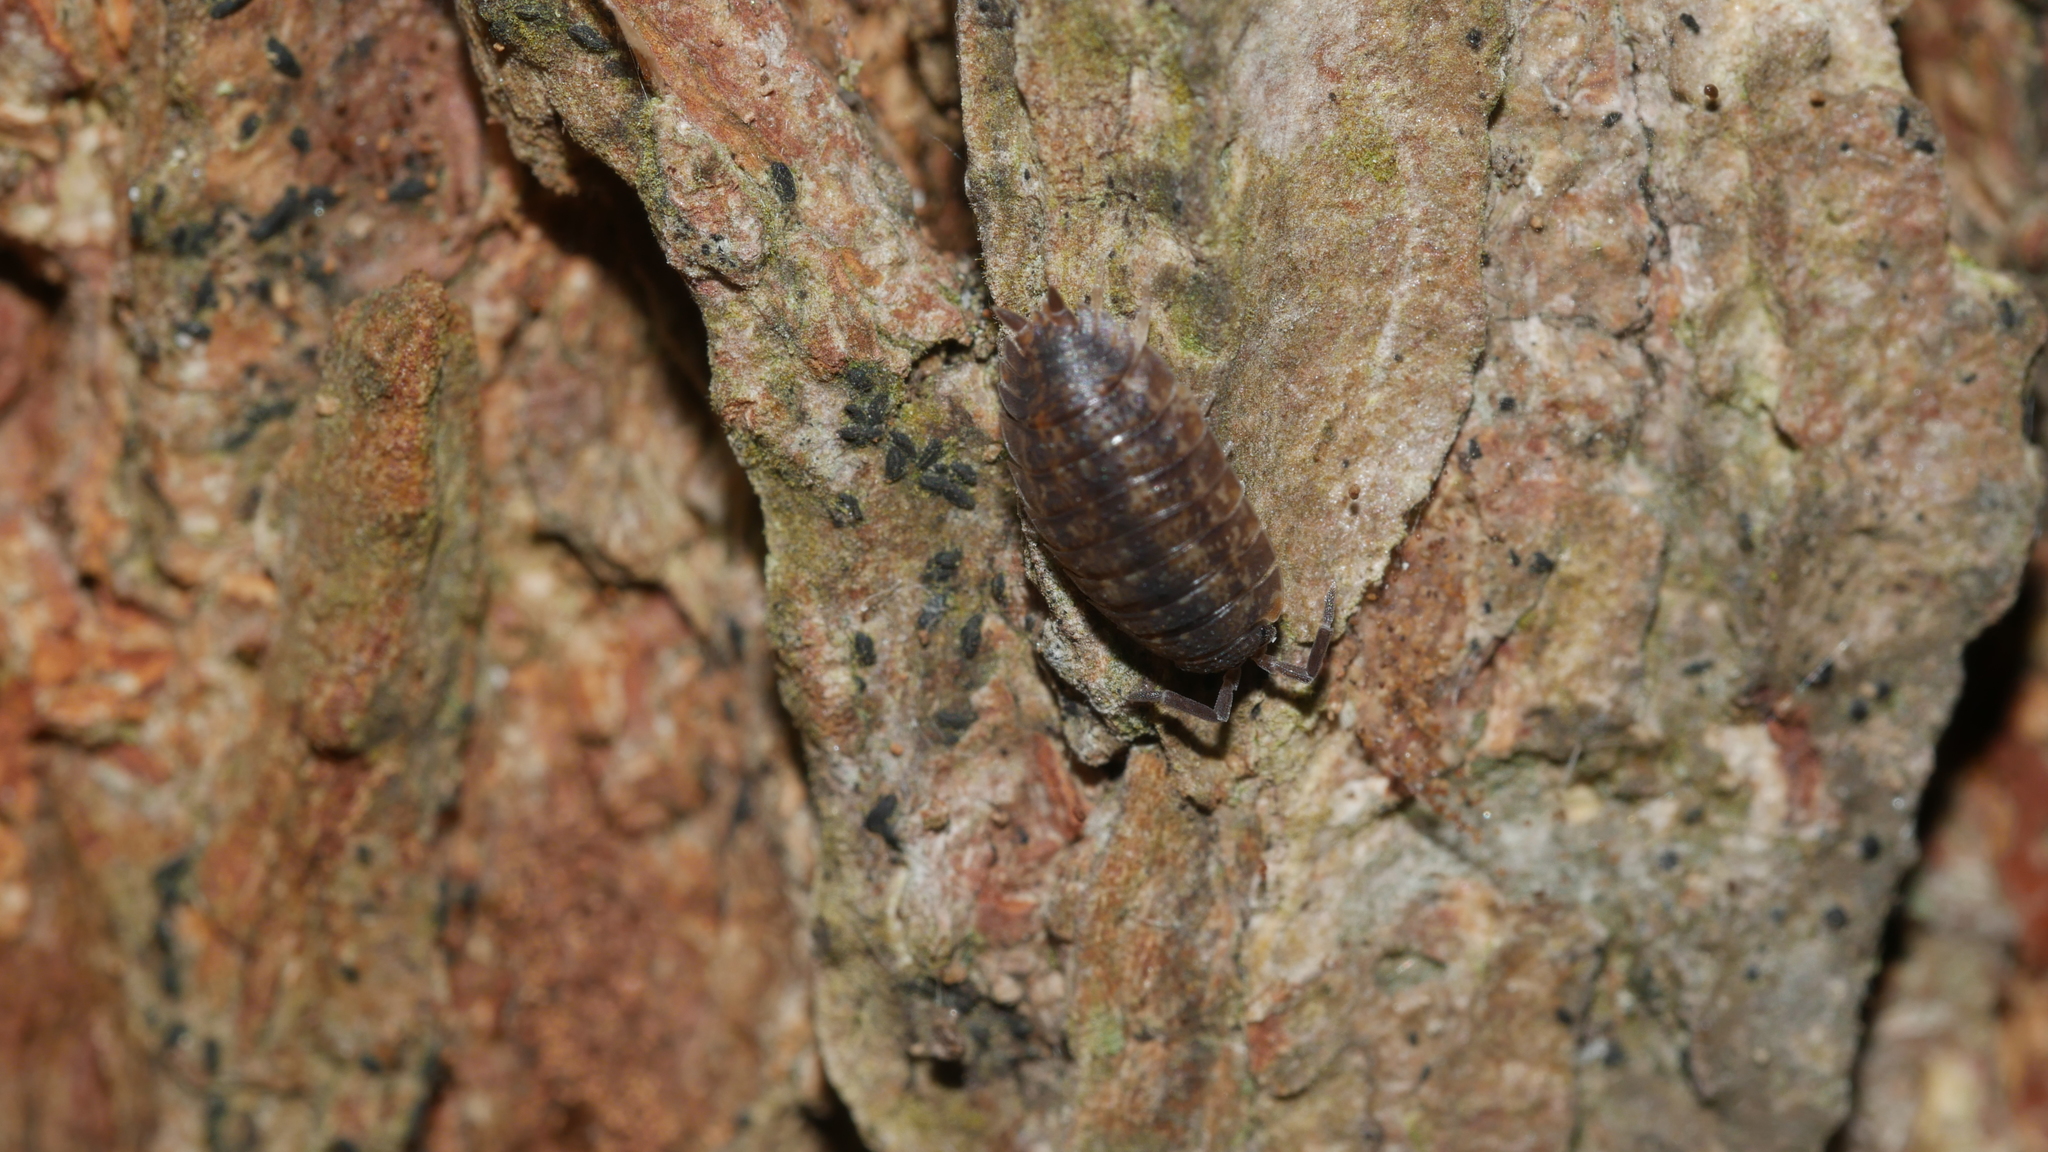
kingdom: Animalia
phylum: Arthropoda
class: Malacostraca
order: Isopoda
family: Porcellionidae
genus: Porcellio
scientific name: Porcellio scaber
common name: Common rough woodlouse
